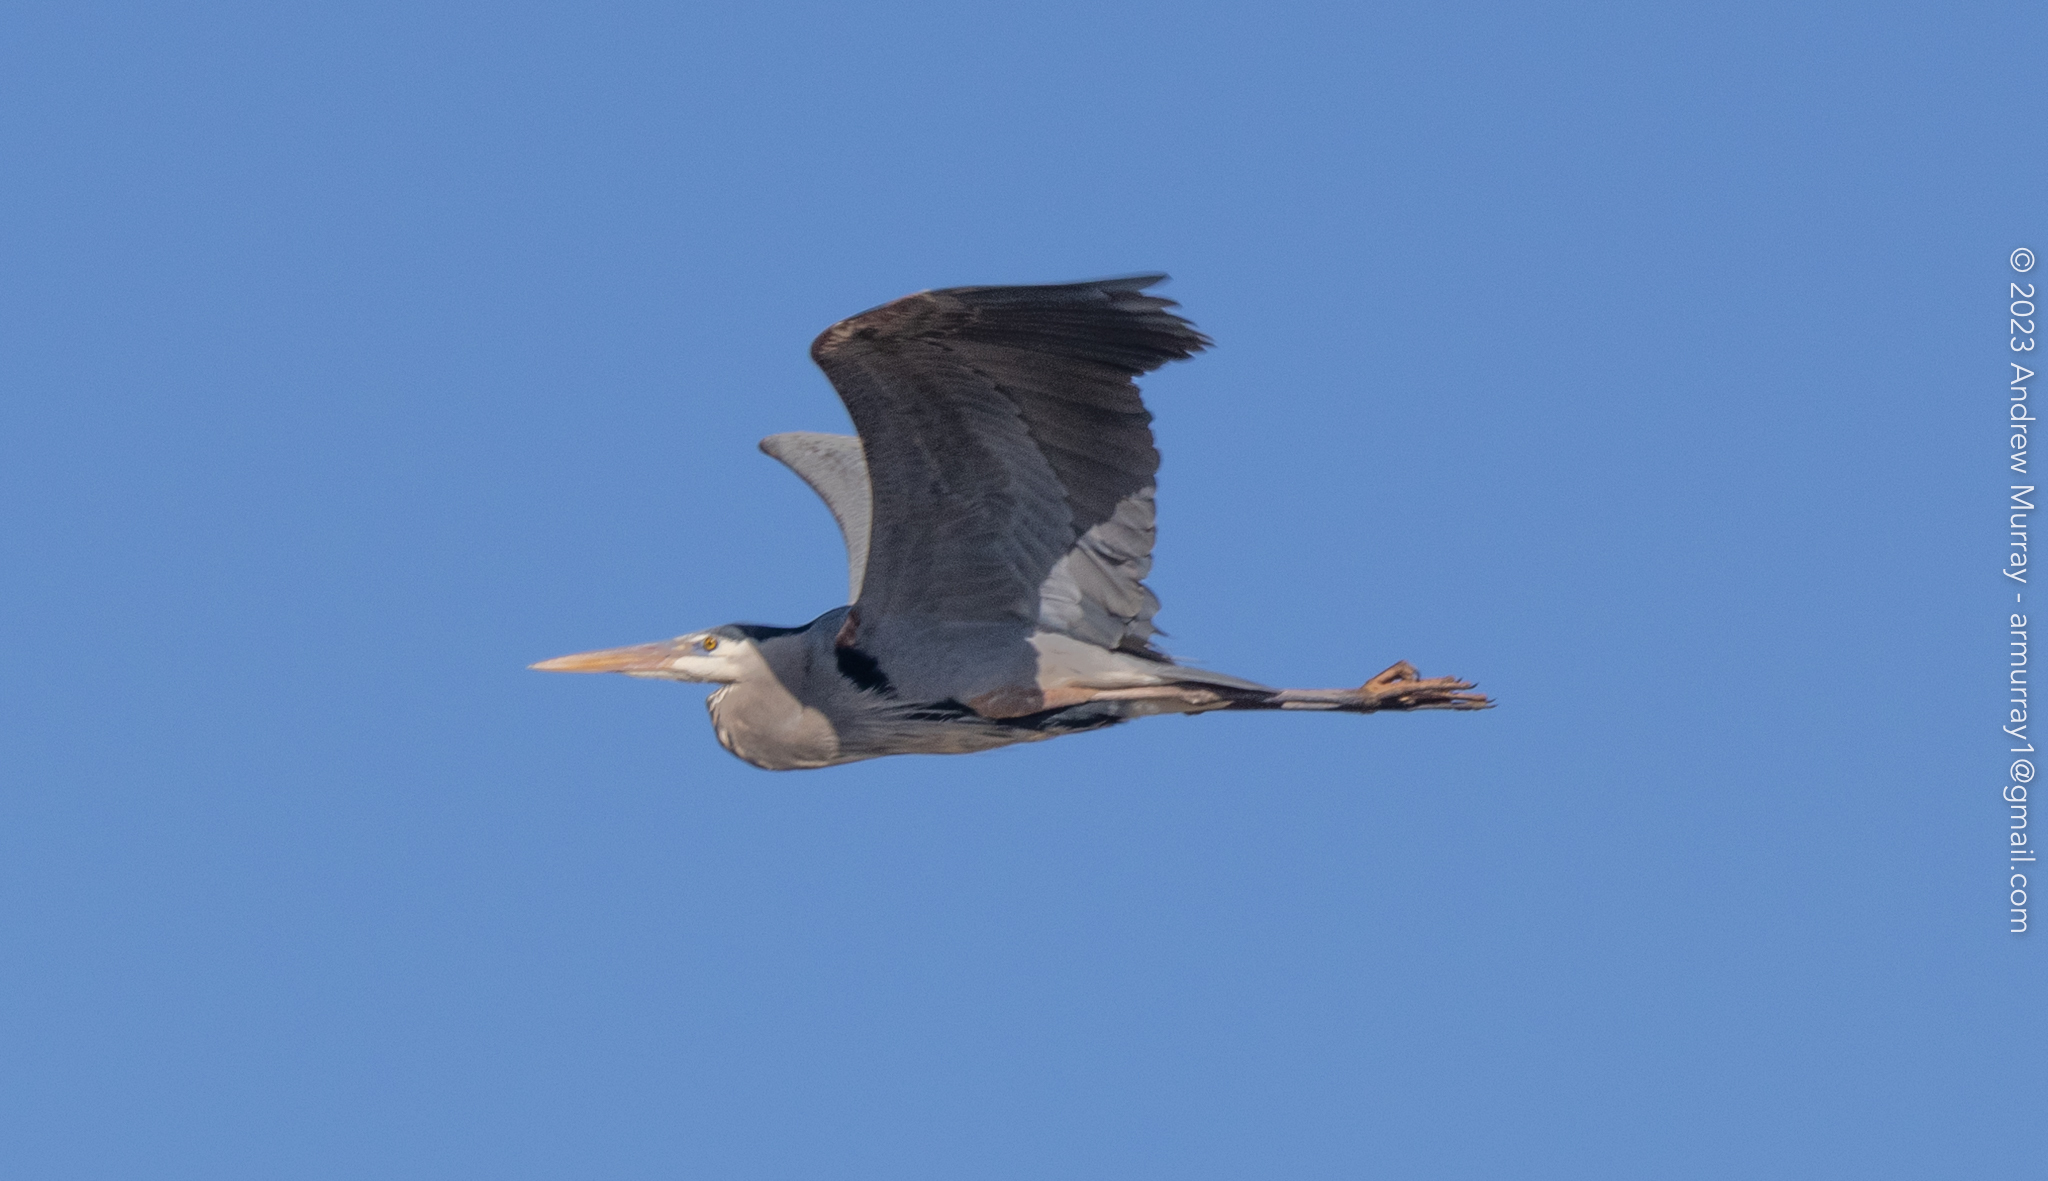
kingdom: Animalia
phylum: Chordata
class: Aves
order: Pelecaniformes
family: Ardeidae
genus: Ardea
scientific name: Ardea herodias
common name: Great blue heron
